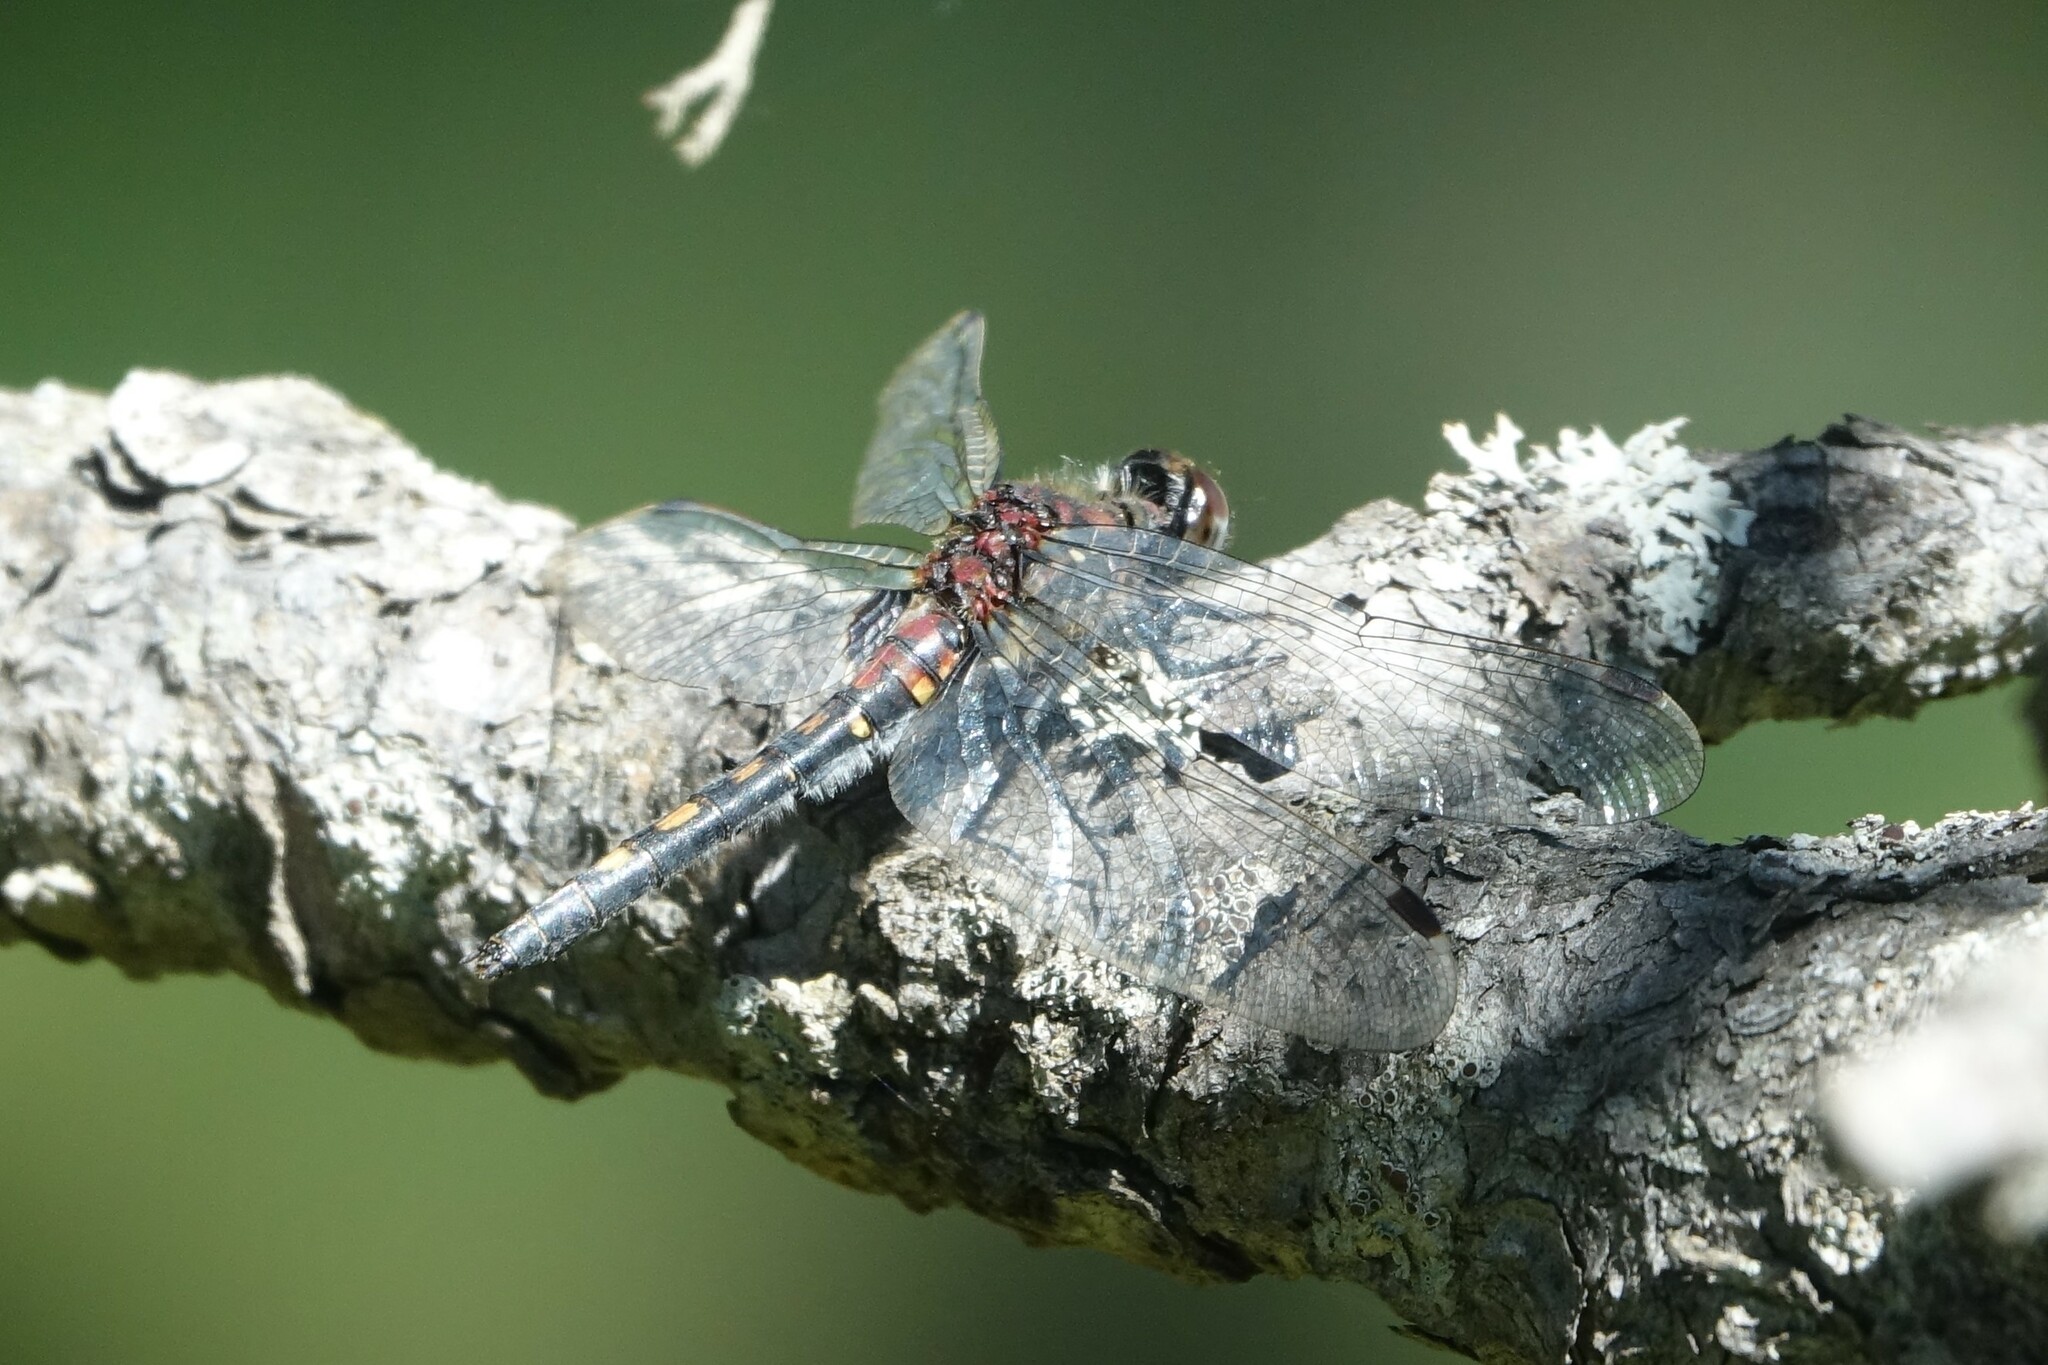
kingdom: Animalia
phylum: Arthropoda
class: Insecta
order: Odonata
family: Libellulidae
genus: Leucorrhinia
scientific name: Leucorrhinia dubia
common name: White-faced darter
